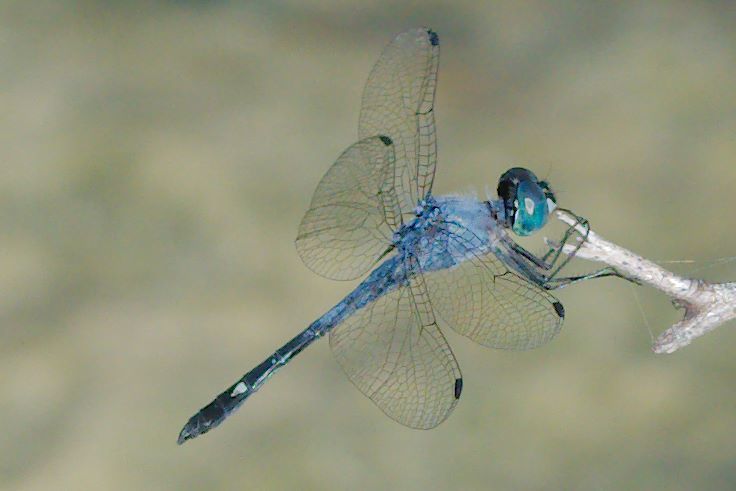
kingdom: Animalia
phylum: Arthropoda
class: Insecta
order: Odonata
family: Libellulidae
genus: Micrathyria
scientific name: Micrathyria aequalis
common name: Spot-tailed dasher
